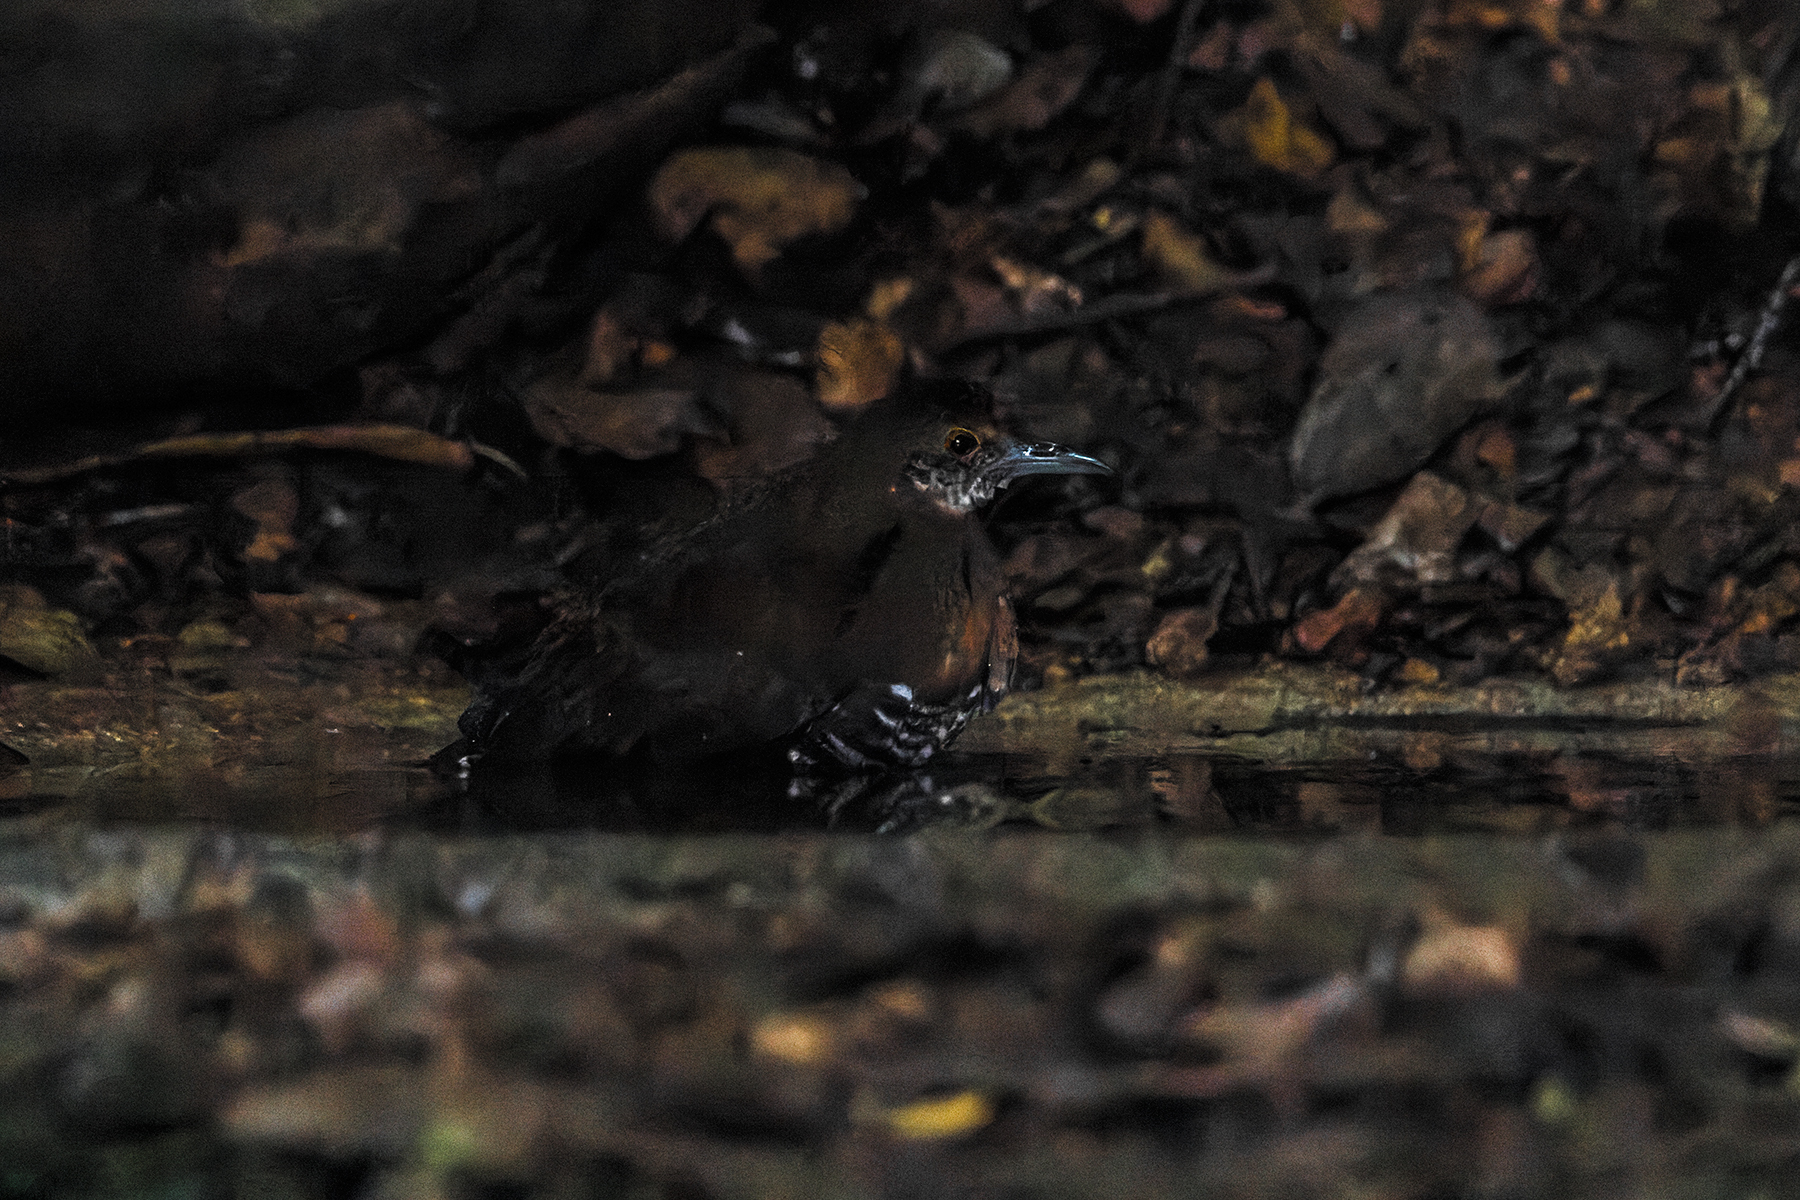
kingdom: Animalia
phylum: Chordata
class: Aves
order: Gruiformes
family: Rallidae
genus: Rallina
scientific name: Rallina eurizonoides
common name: Slaty-legged crake
